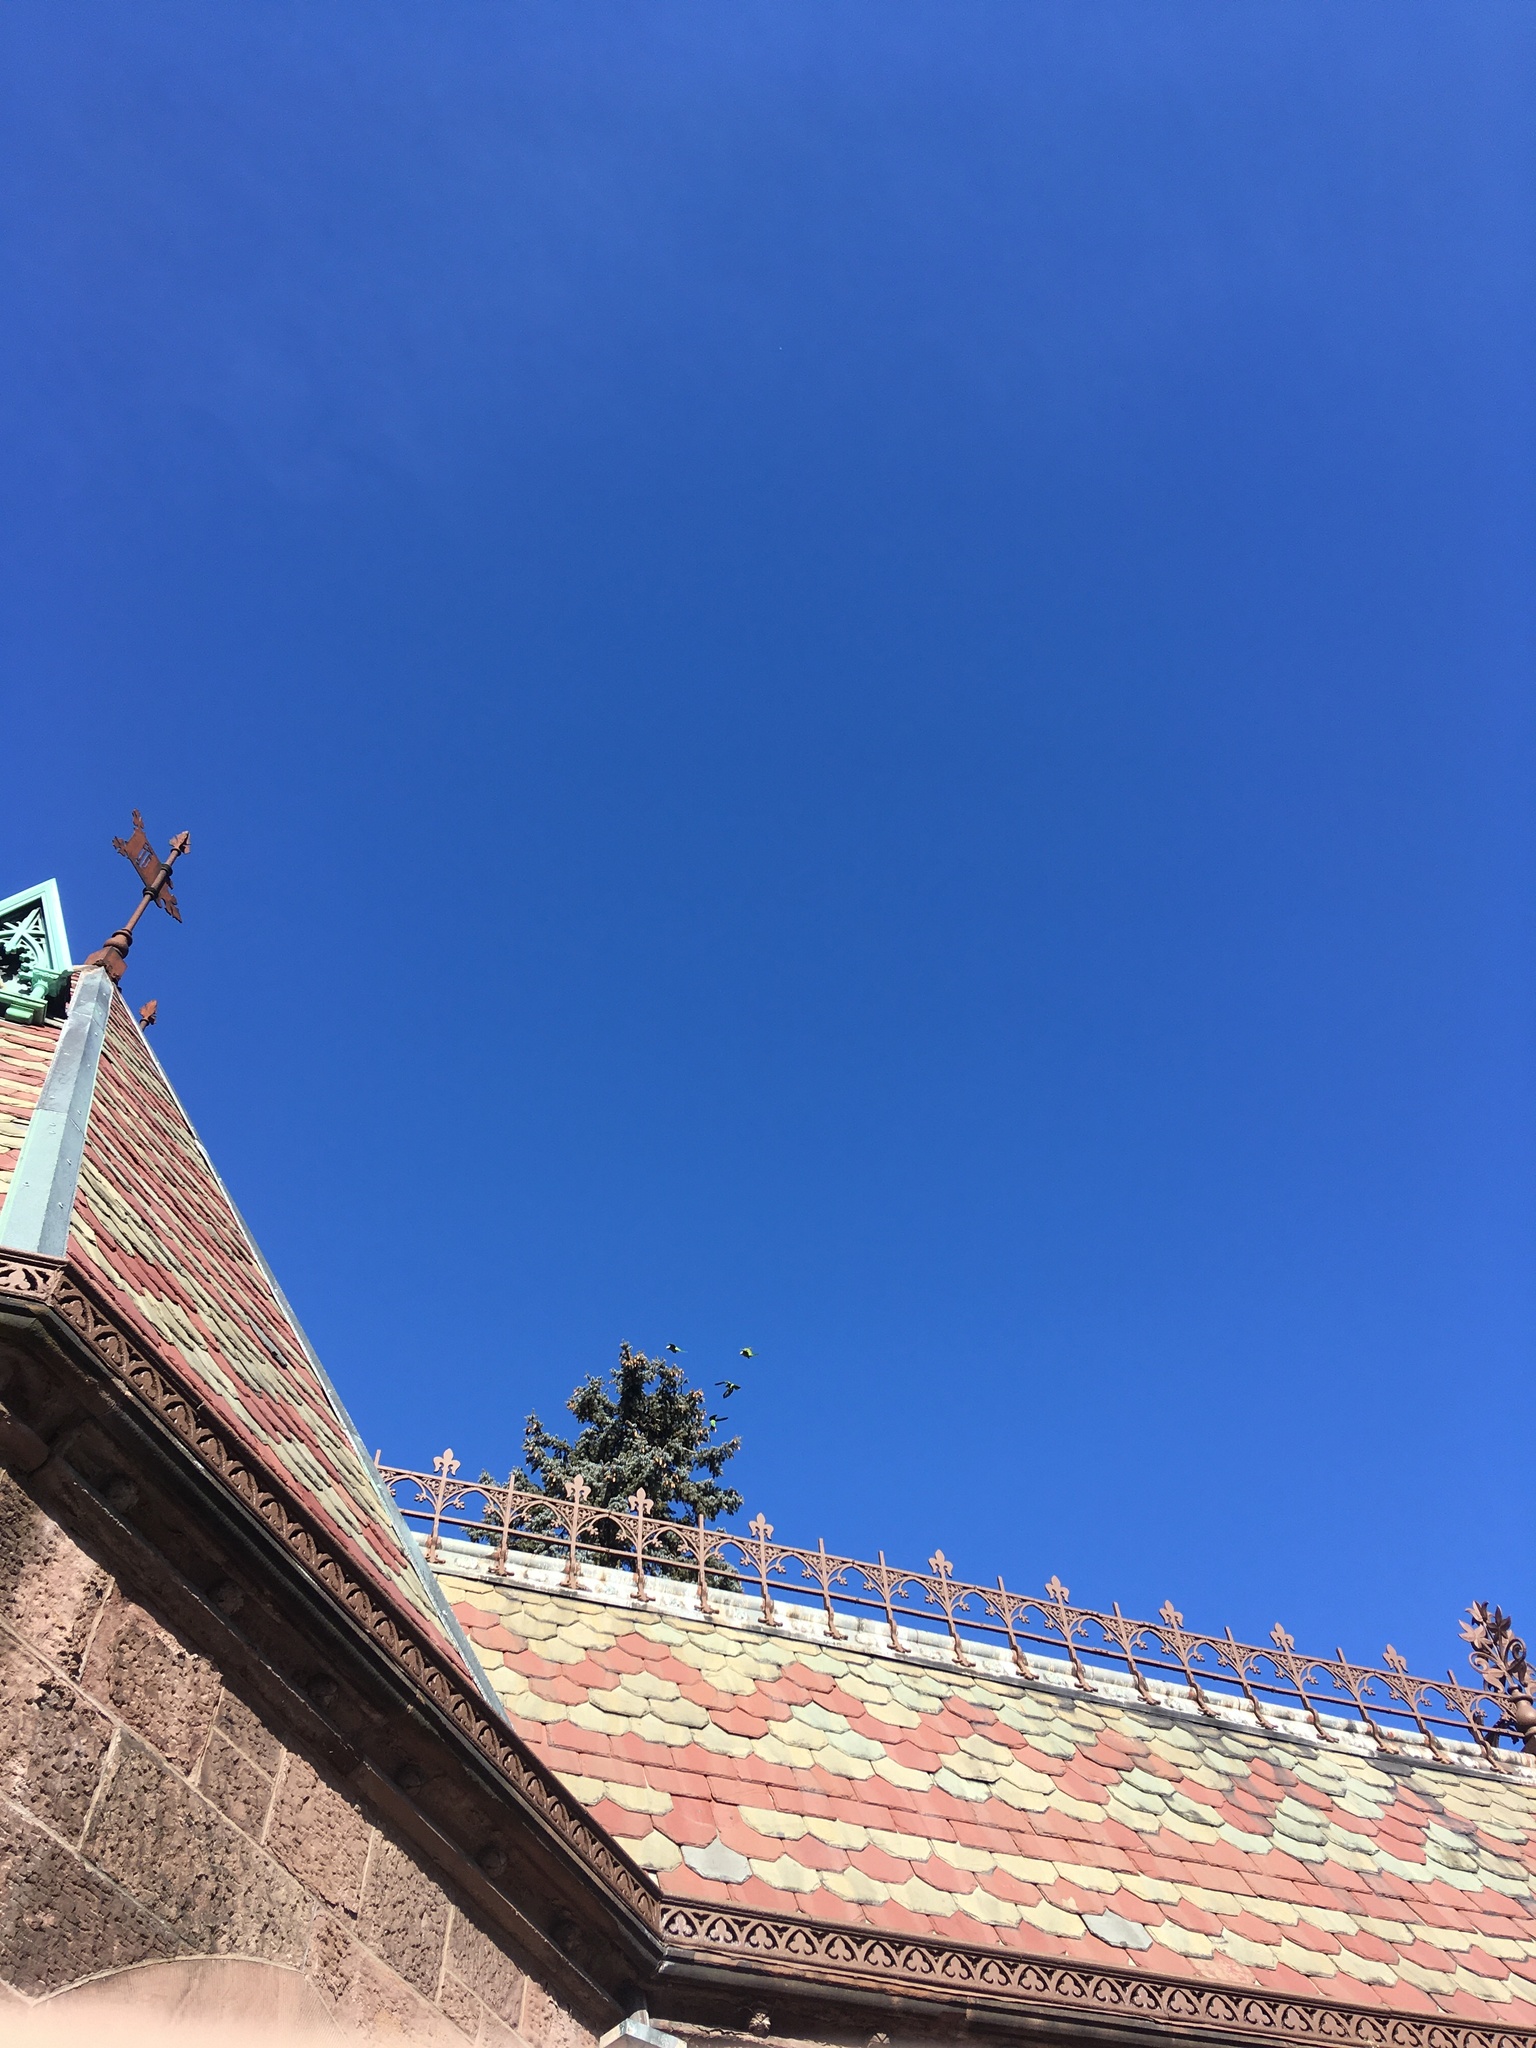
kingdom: Animalia
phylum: Chordata
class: Aves
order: Psittaciformes
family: Psittacidae
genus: Myiopsitta
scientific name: Myiopsitta monachus
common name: Monk parakeet
